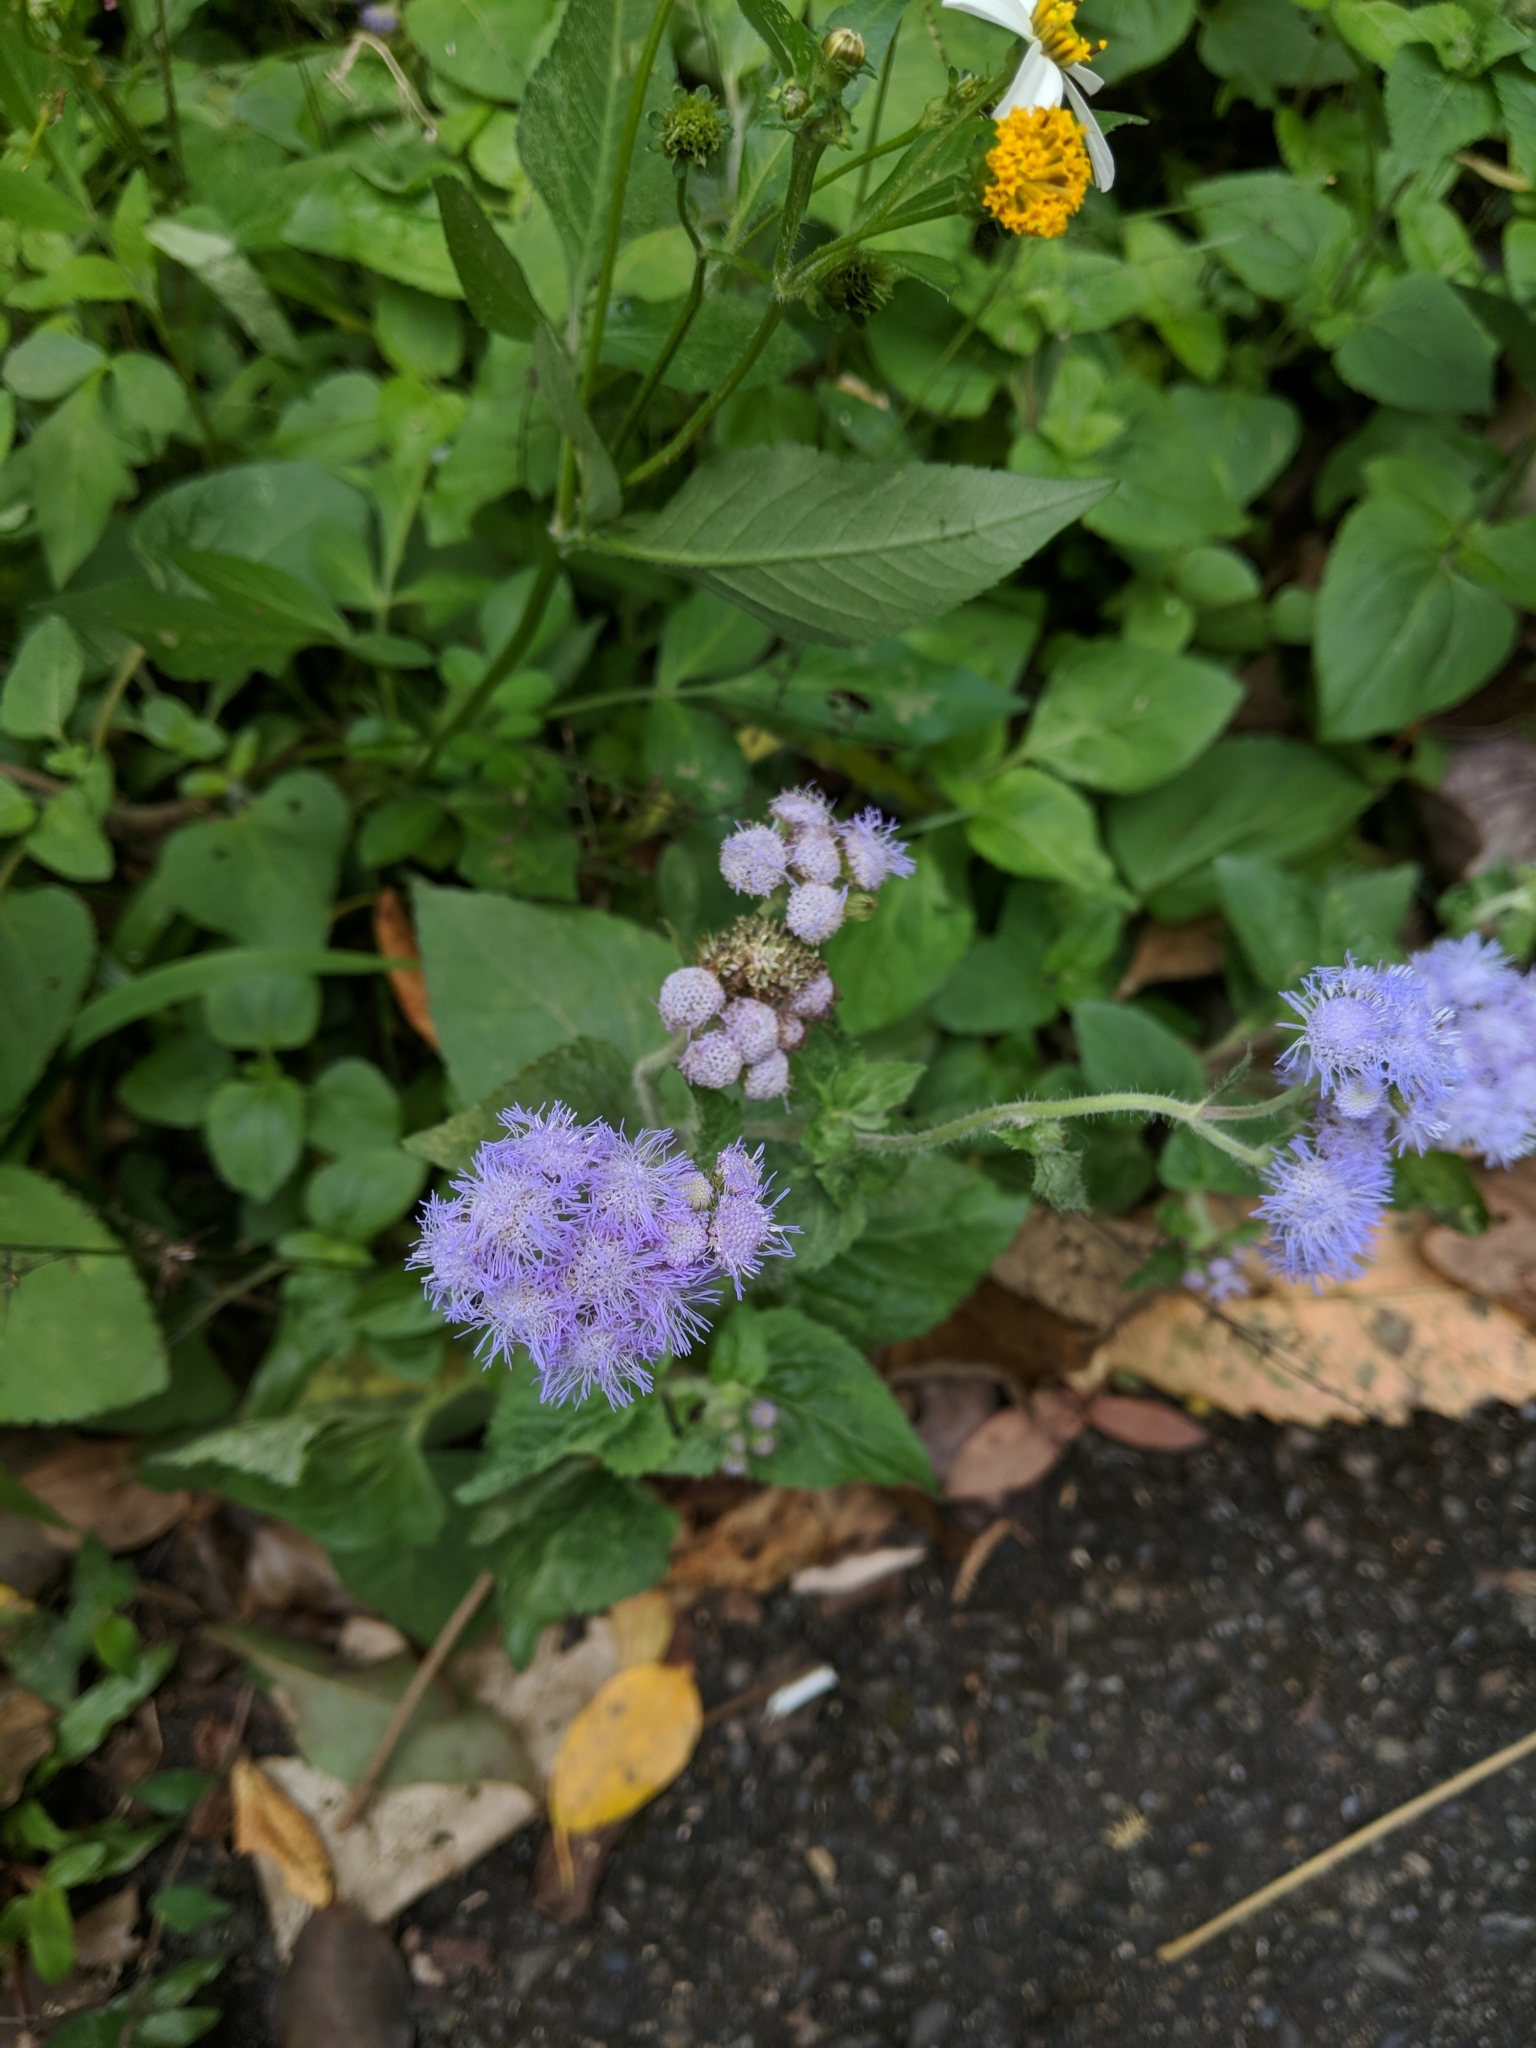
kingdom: Plantae
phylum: Tracheophyta
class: Magnoliopsida
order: Asterales
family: Asteraceae
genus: Ageratum
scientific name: Ageratum houstonianum
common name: Bluemink
